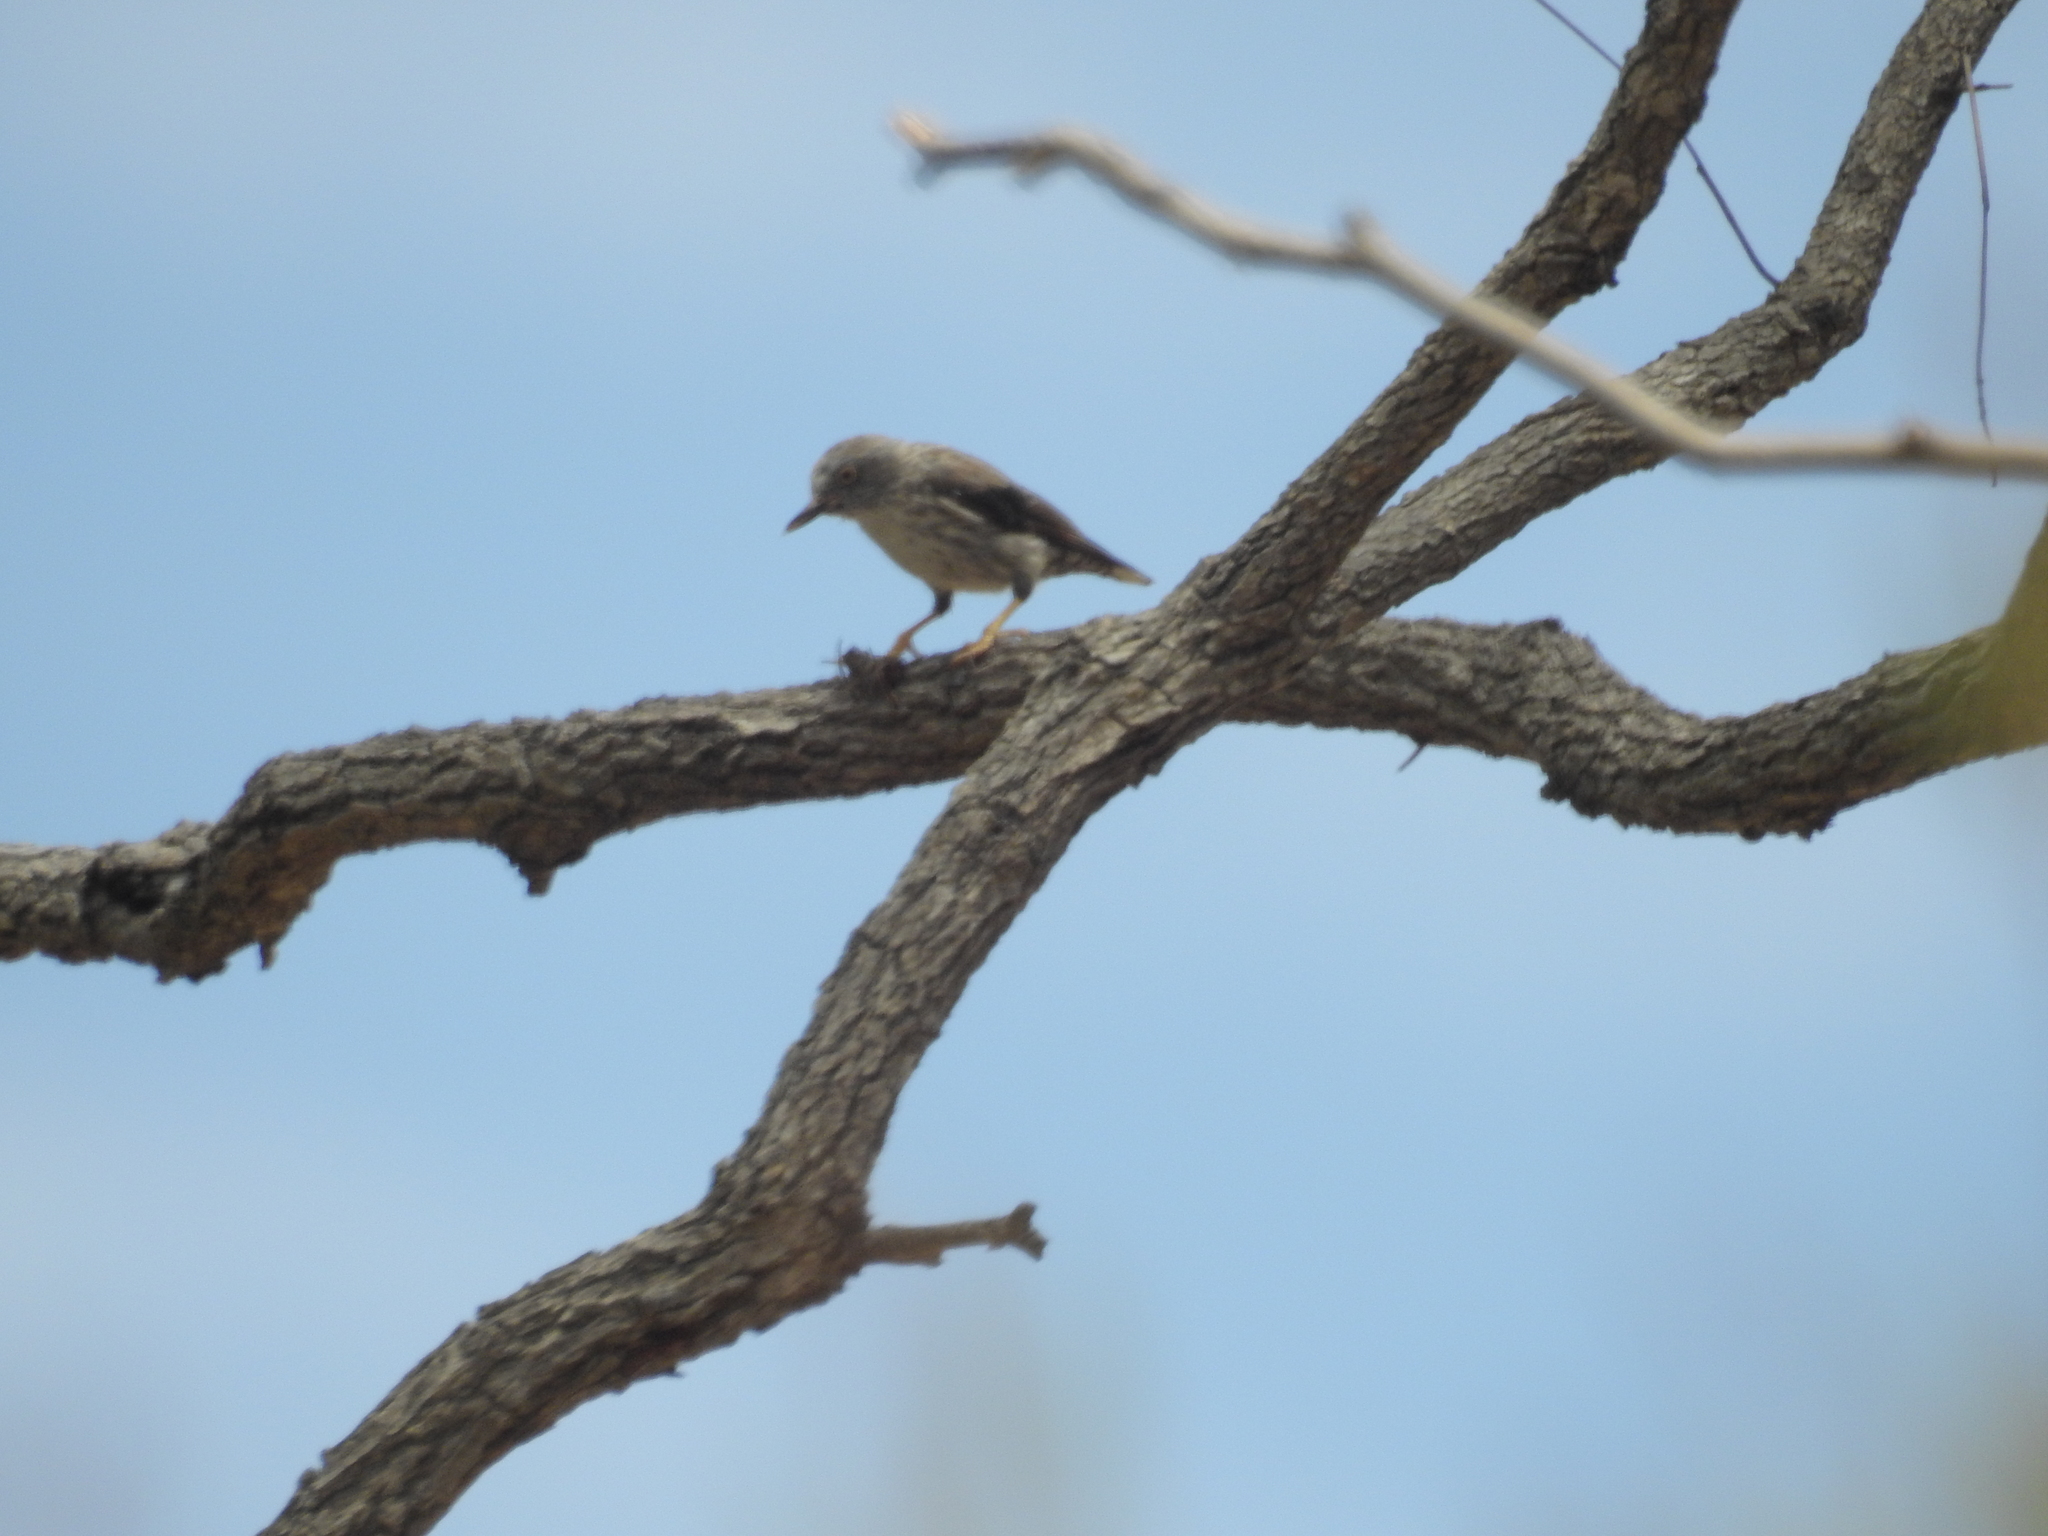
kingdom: Animalia
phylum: Chordata
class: Aves
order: Passeriformes
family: Neosittidae
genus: Daphoenositta
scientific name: Daphoenositta chrysoptera
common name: Varied sittella
